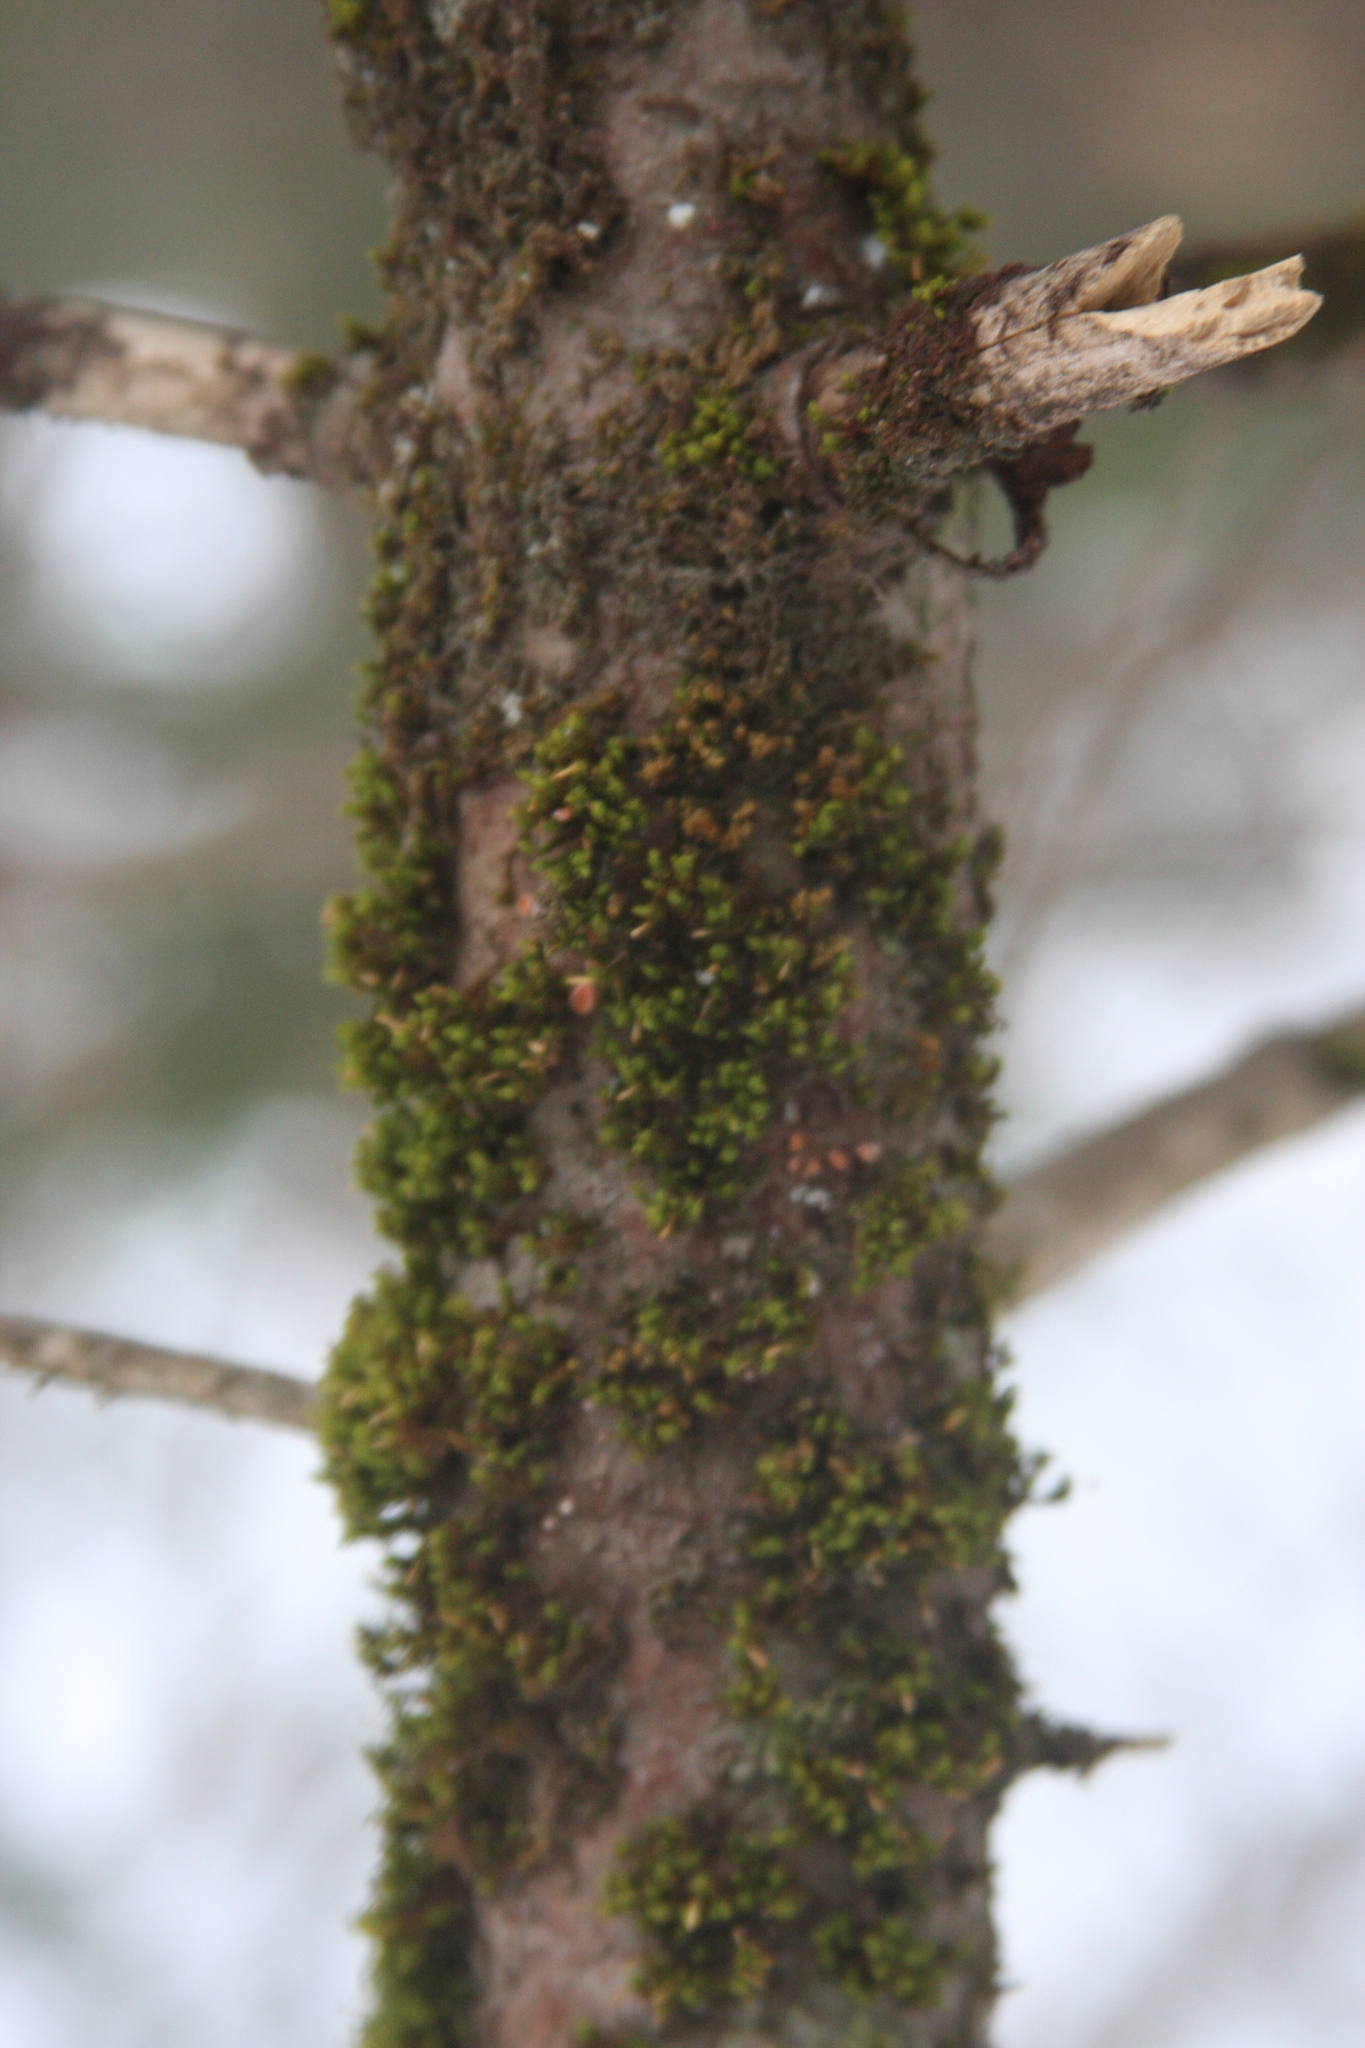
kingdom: Plantae
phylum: Bryophyta
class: Bryopsida
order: Orthotrichales
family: Orthotrichaceae
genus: Ulota
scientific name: Ulota crispa
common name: Crisped pincushion moss
